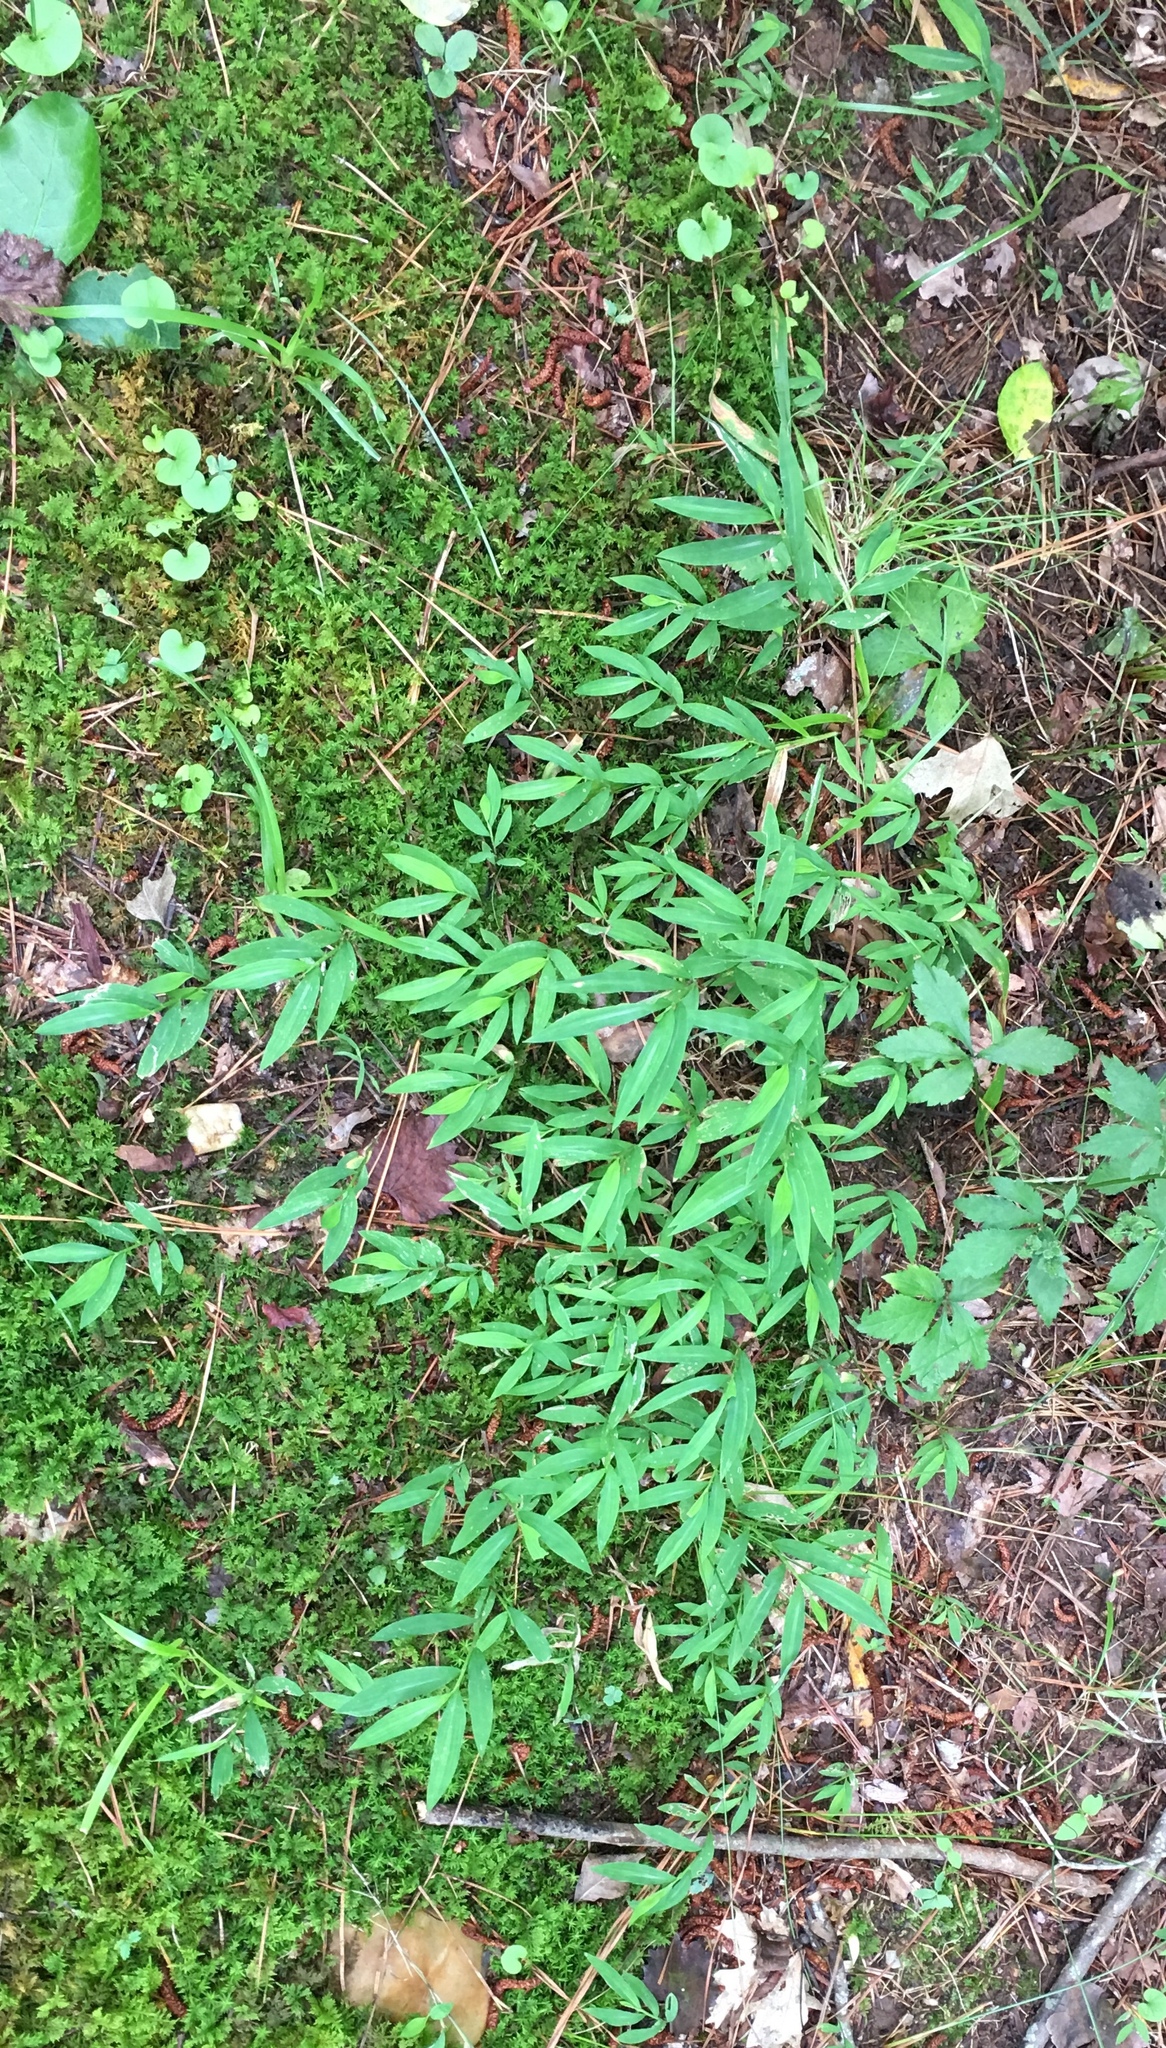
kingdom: Plantae
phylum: Tracheophyta
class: Liliopsida
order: Poales
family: Poaceae
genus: Microstegium
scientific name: Microstegium vimineum
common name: Japanese stiltgrass
